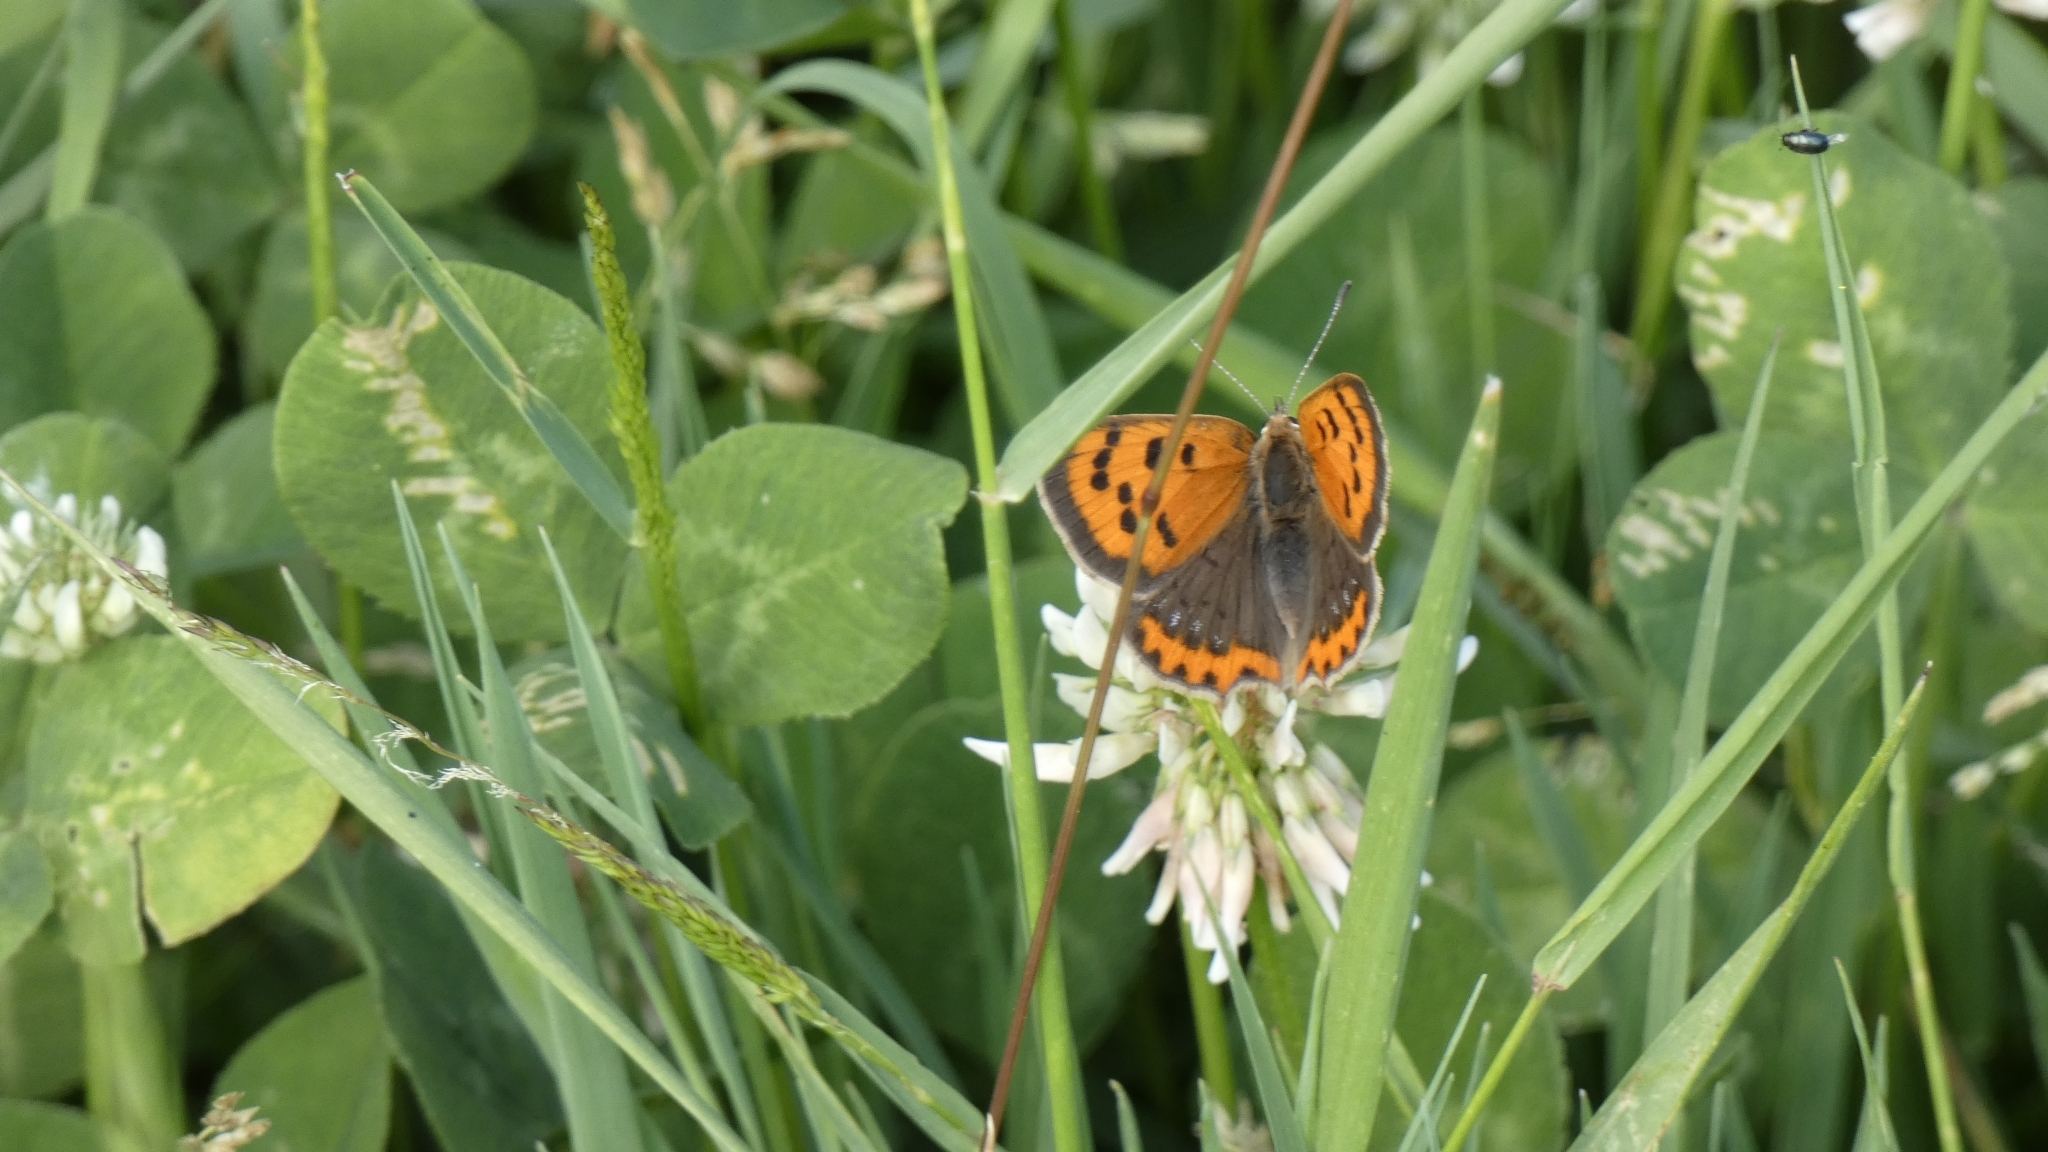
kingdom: Animalia
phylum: Arthropoda
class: Insecta
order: Lepidoptera
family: Lycaenidae
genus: Lycaena
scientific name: Lycaena phlaeas
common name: Small copper
